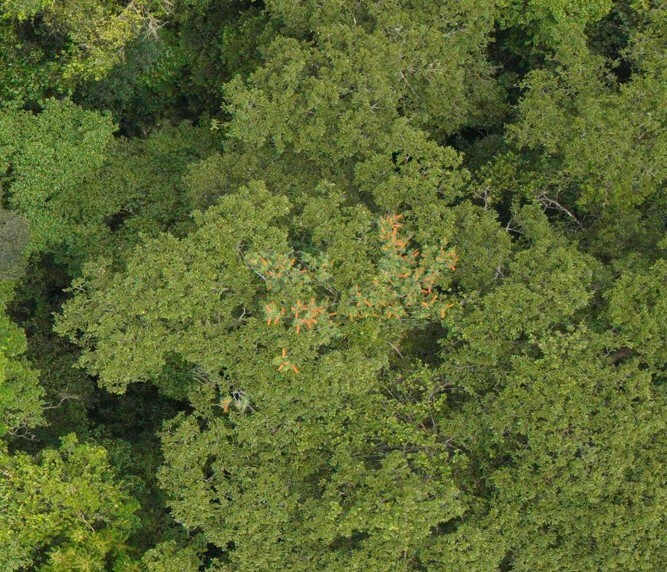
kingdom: Plantae
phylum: Tracheophyta
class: Magnoliopsida
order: Ericales
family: Marcgraviaceae
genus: Norantea
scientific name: Norantea guianensis
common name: Red hot poker vine
